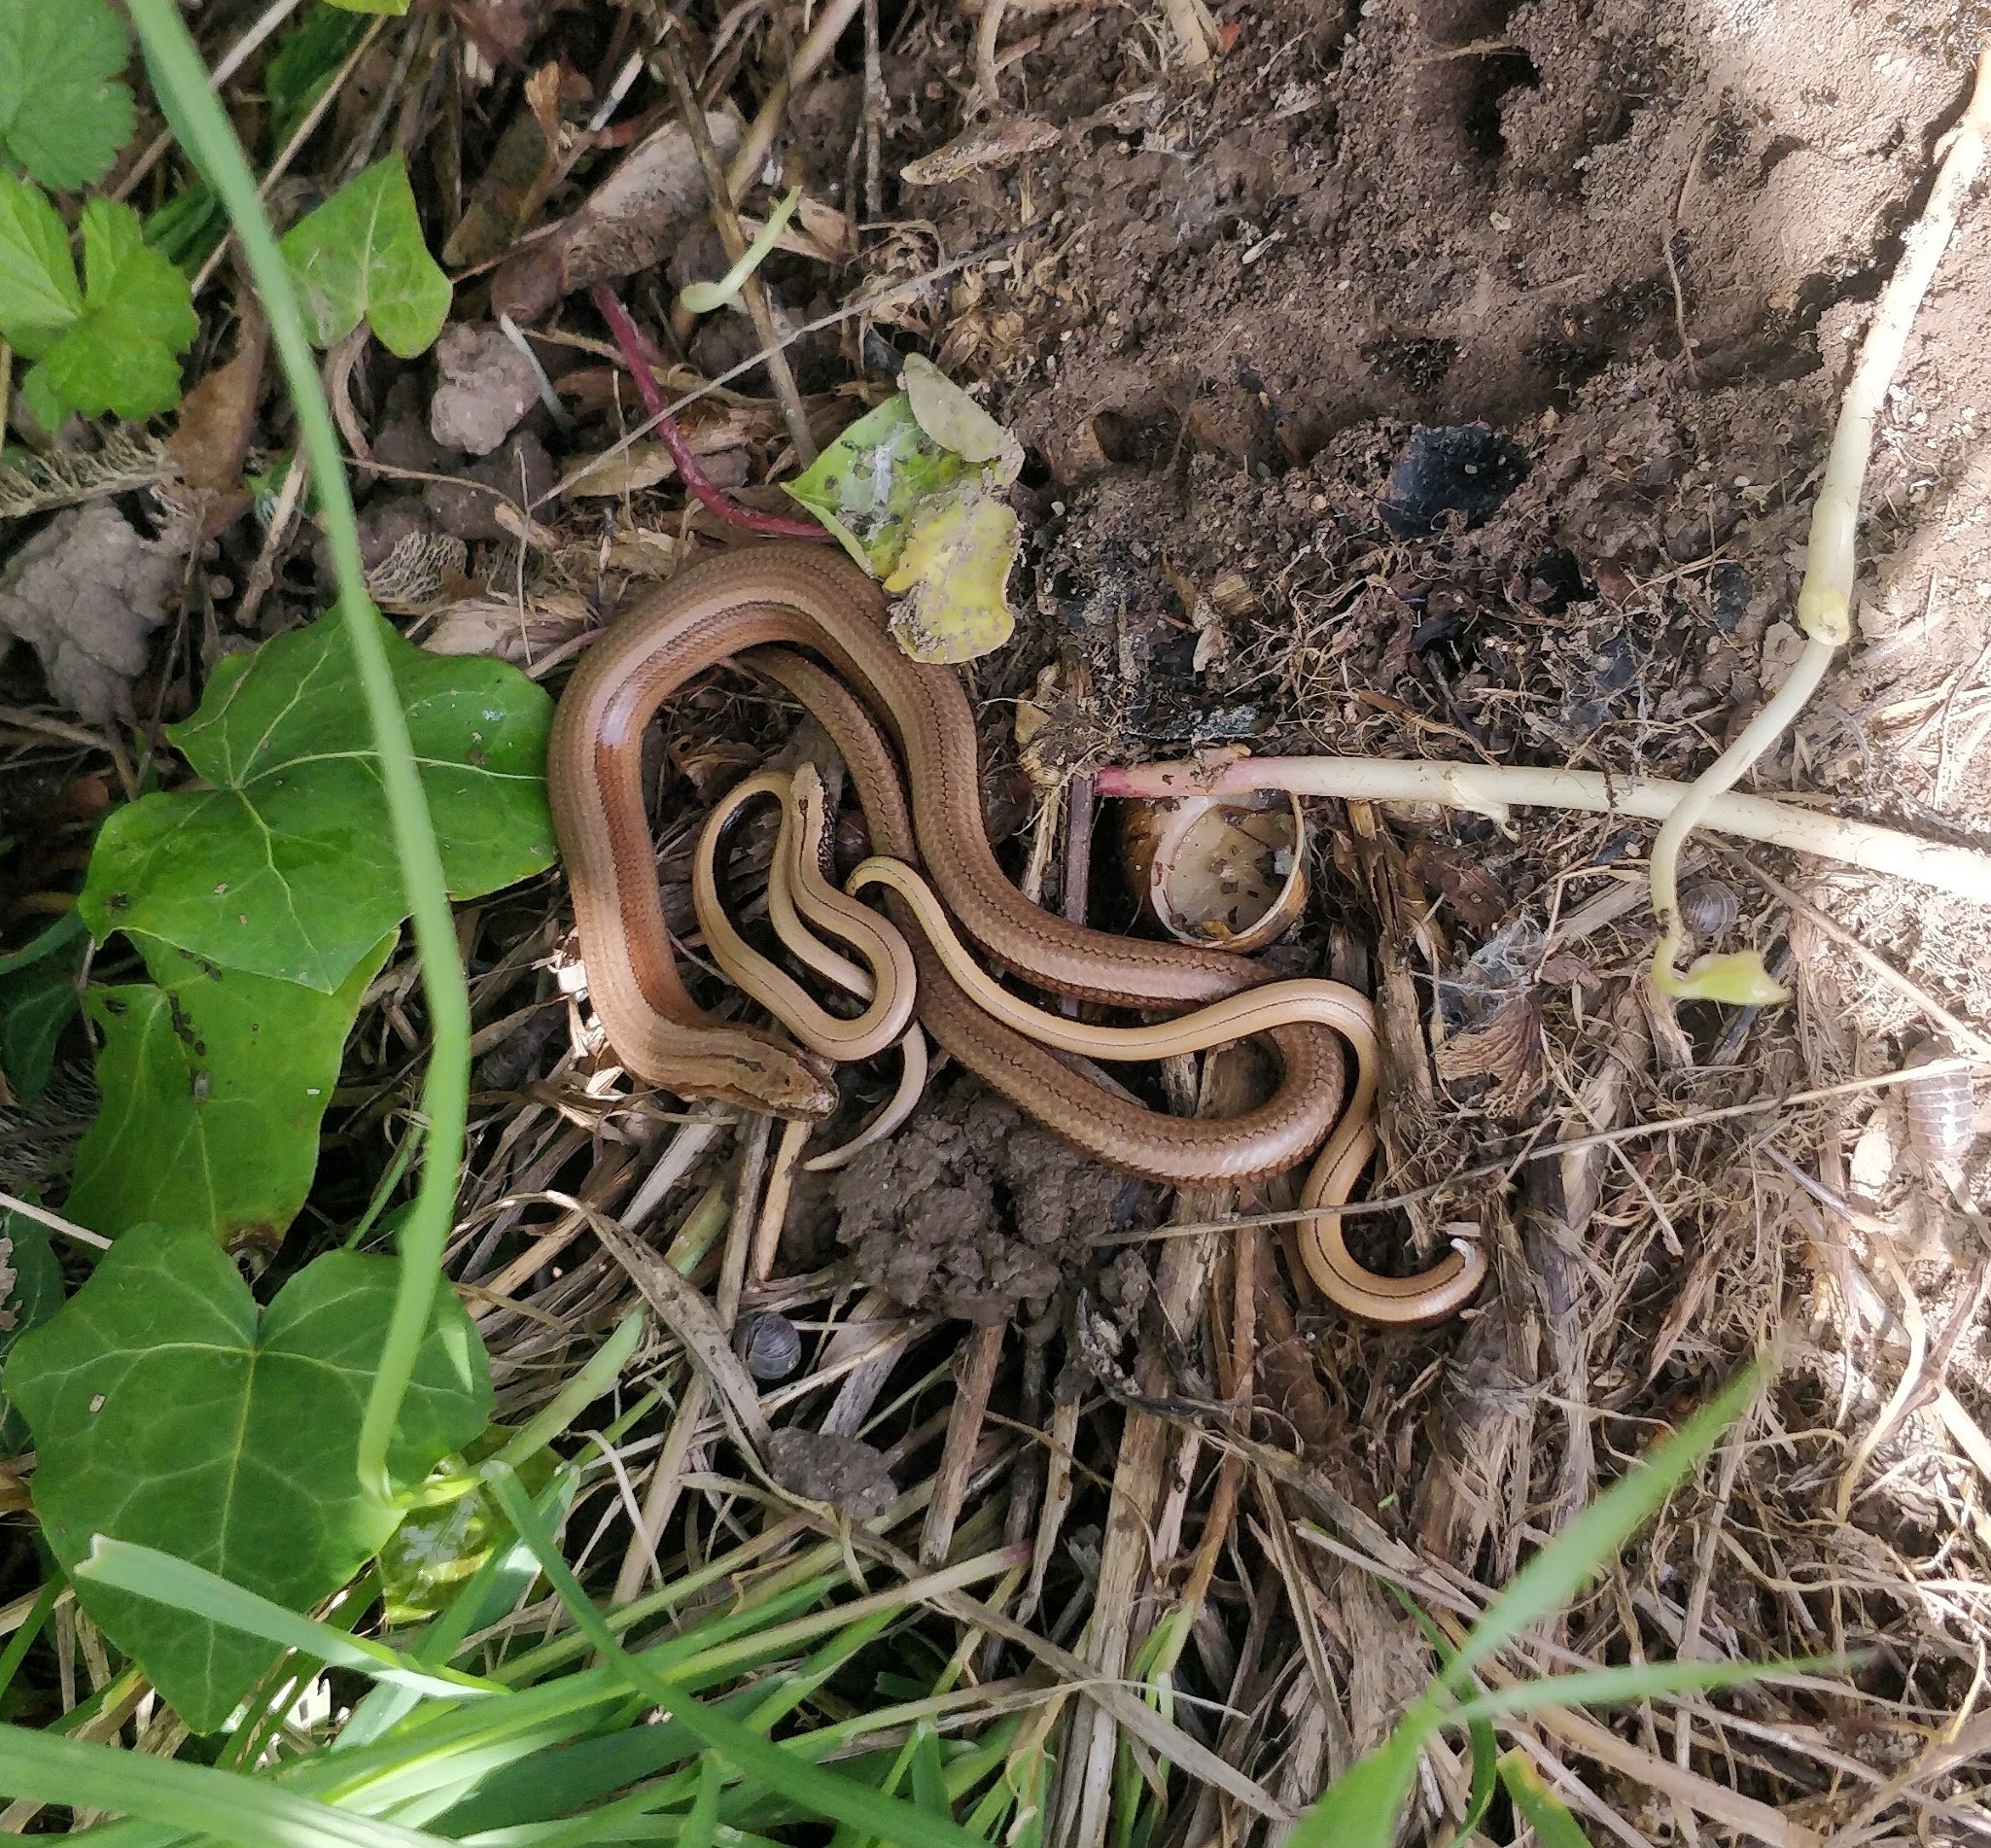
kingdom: Animalia
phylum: Chordata
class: Squamata
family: Anguidae
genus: Anguis
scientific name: Anguis fragilis
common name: Slow worm
